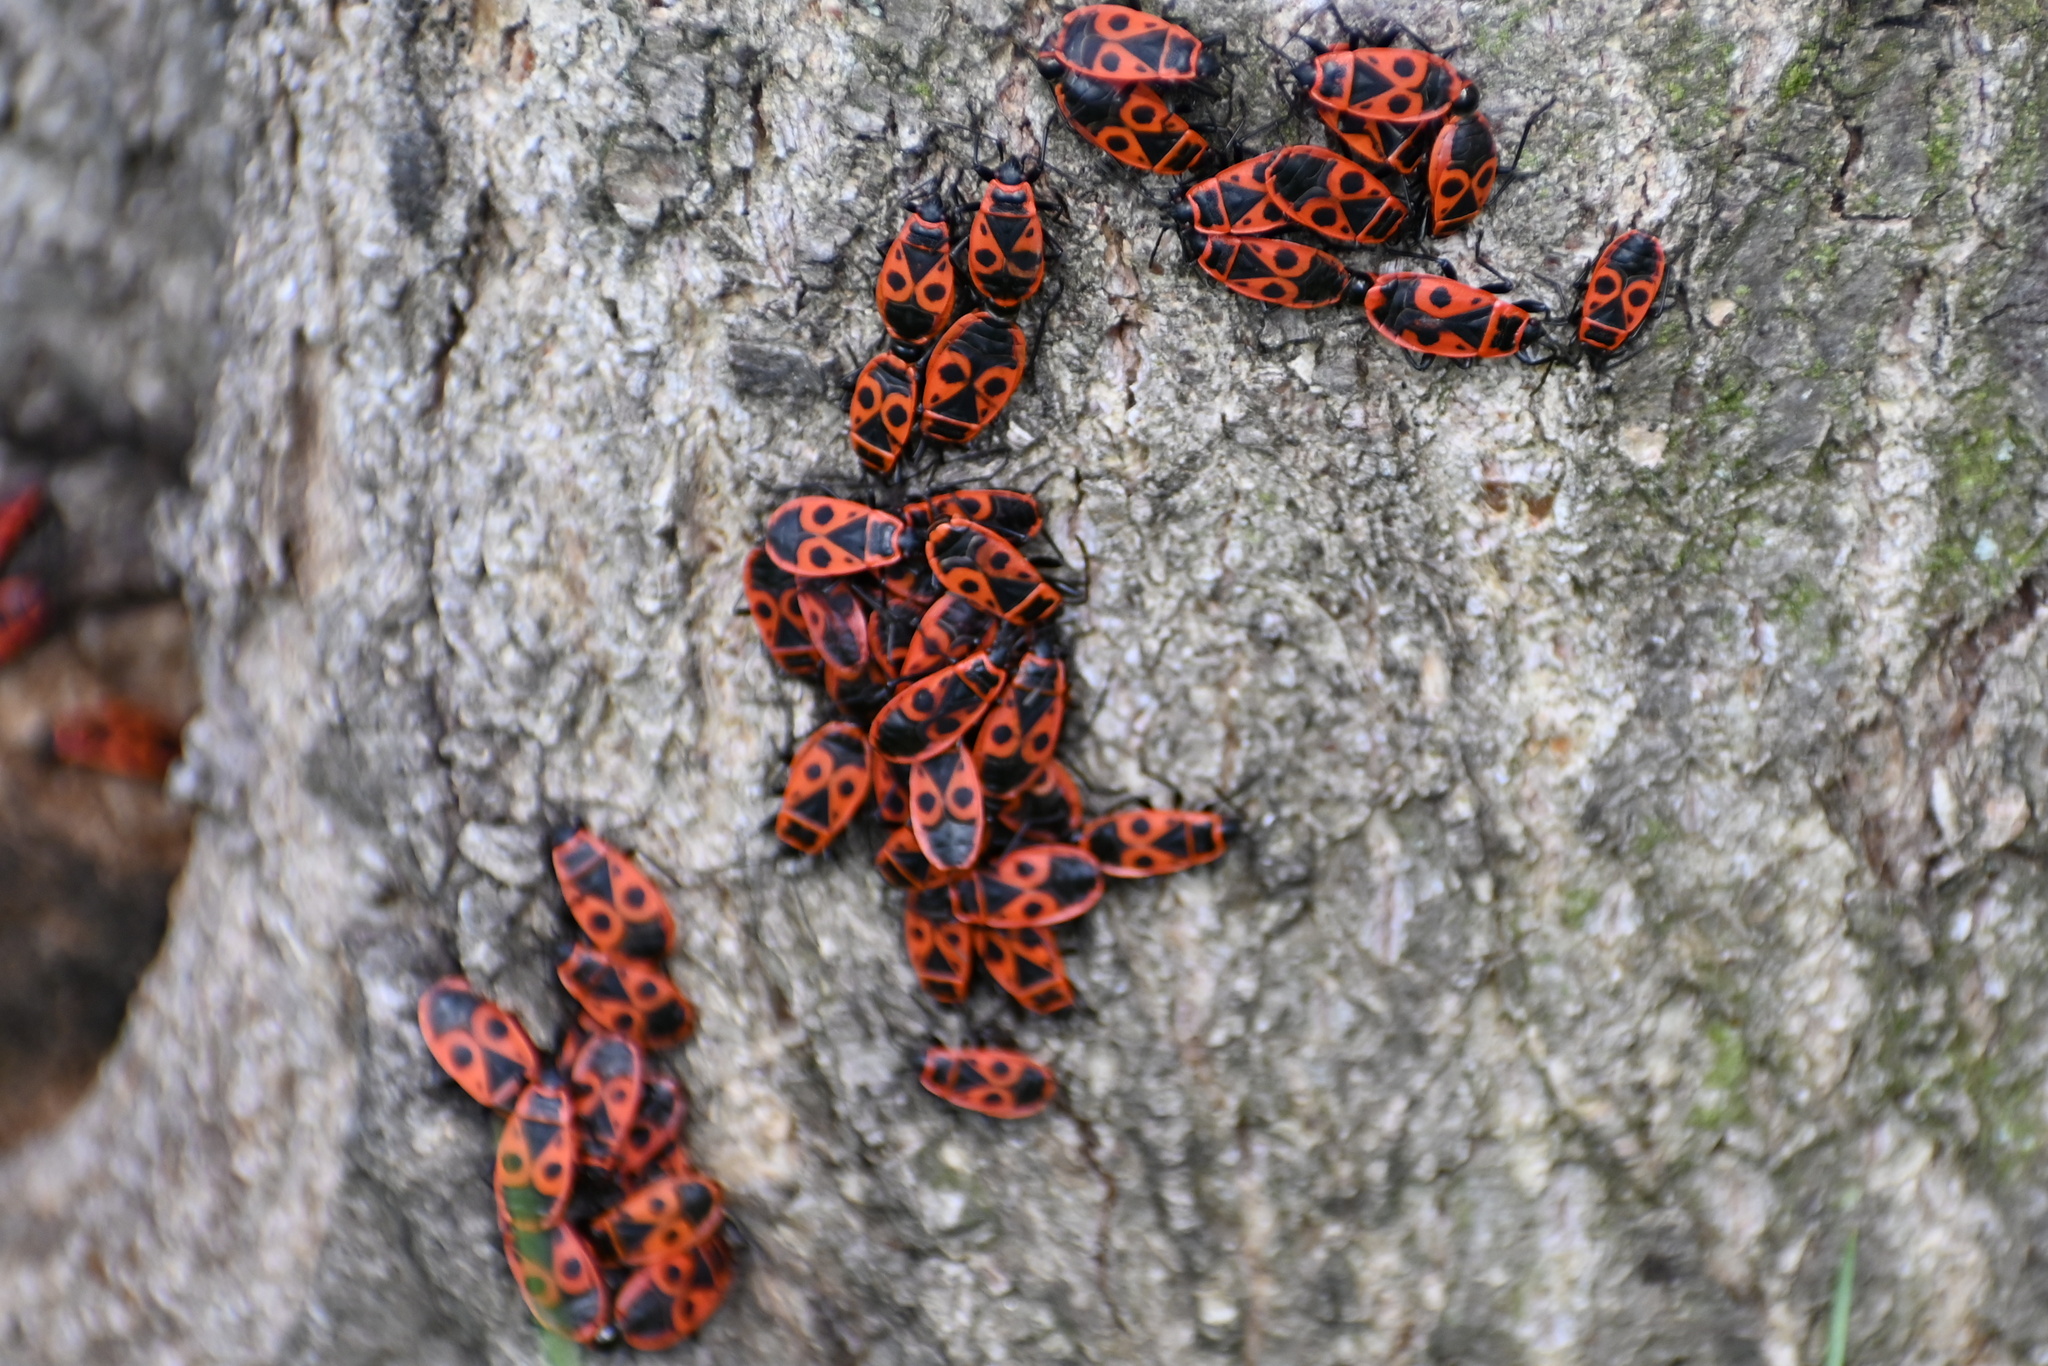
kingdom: Animalia
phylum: Arthropoda
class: Insecta
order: Hemiptera
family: Pyrrhocoridae
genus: Pyrrhocoris
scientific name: Pyrrhocoris apterus
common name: Firebug
